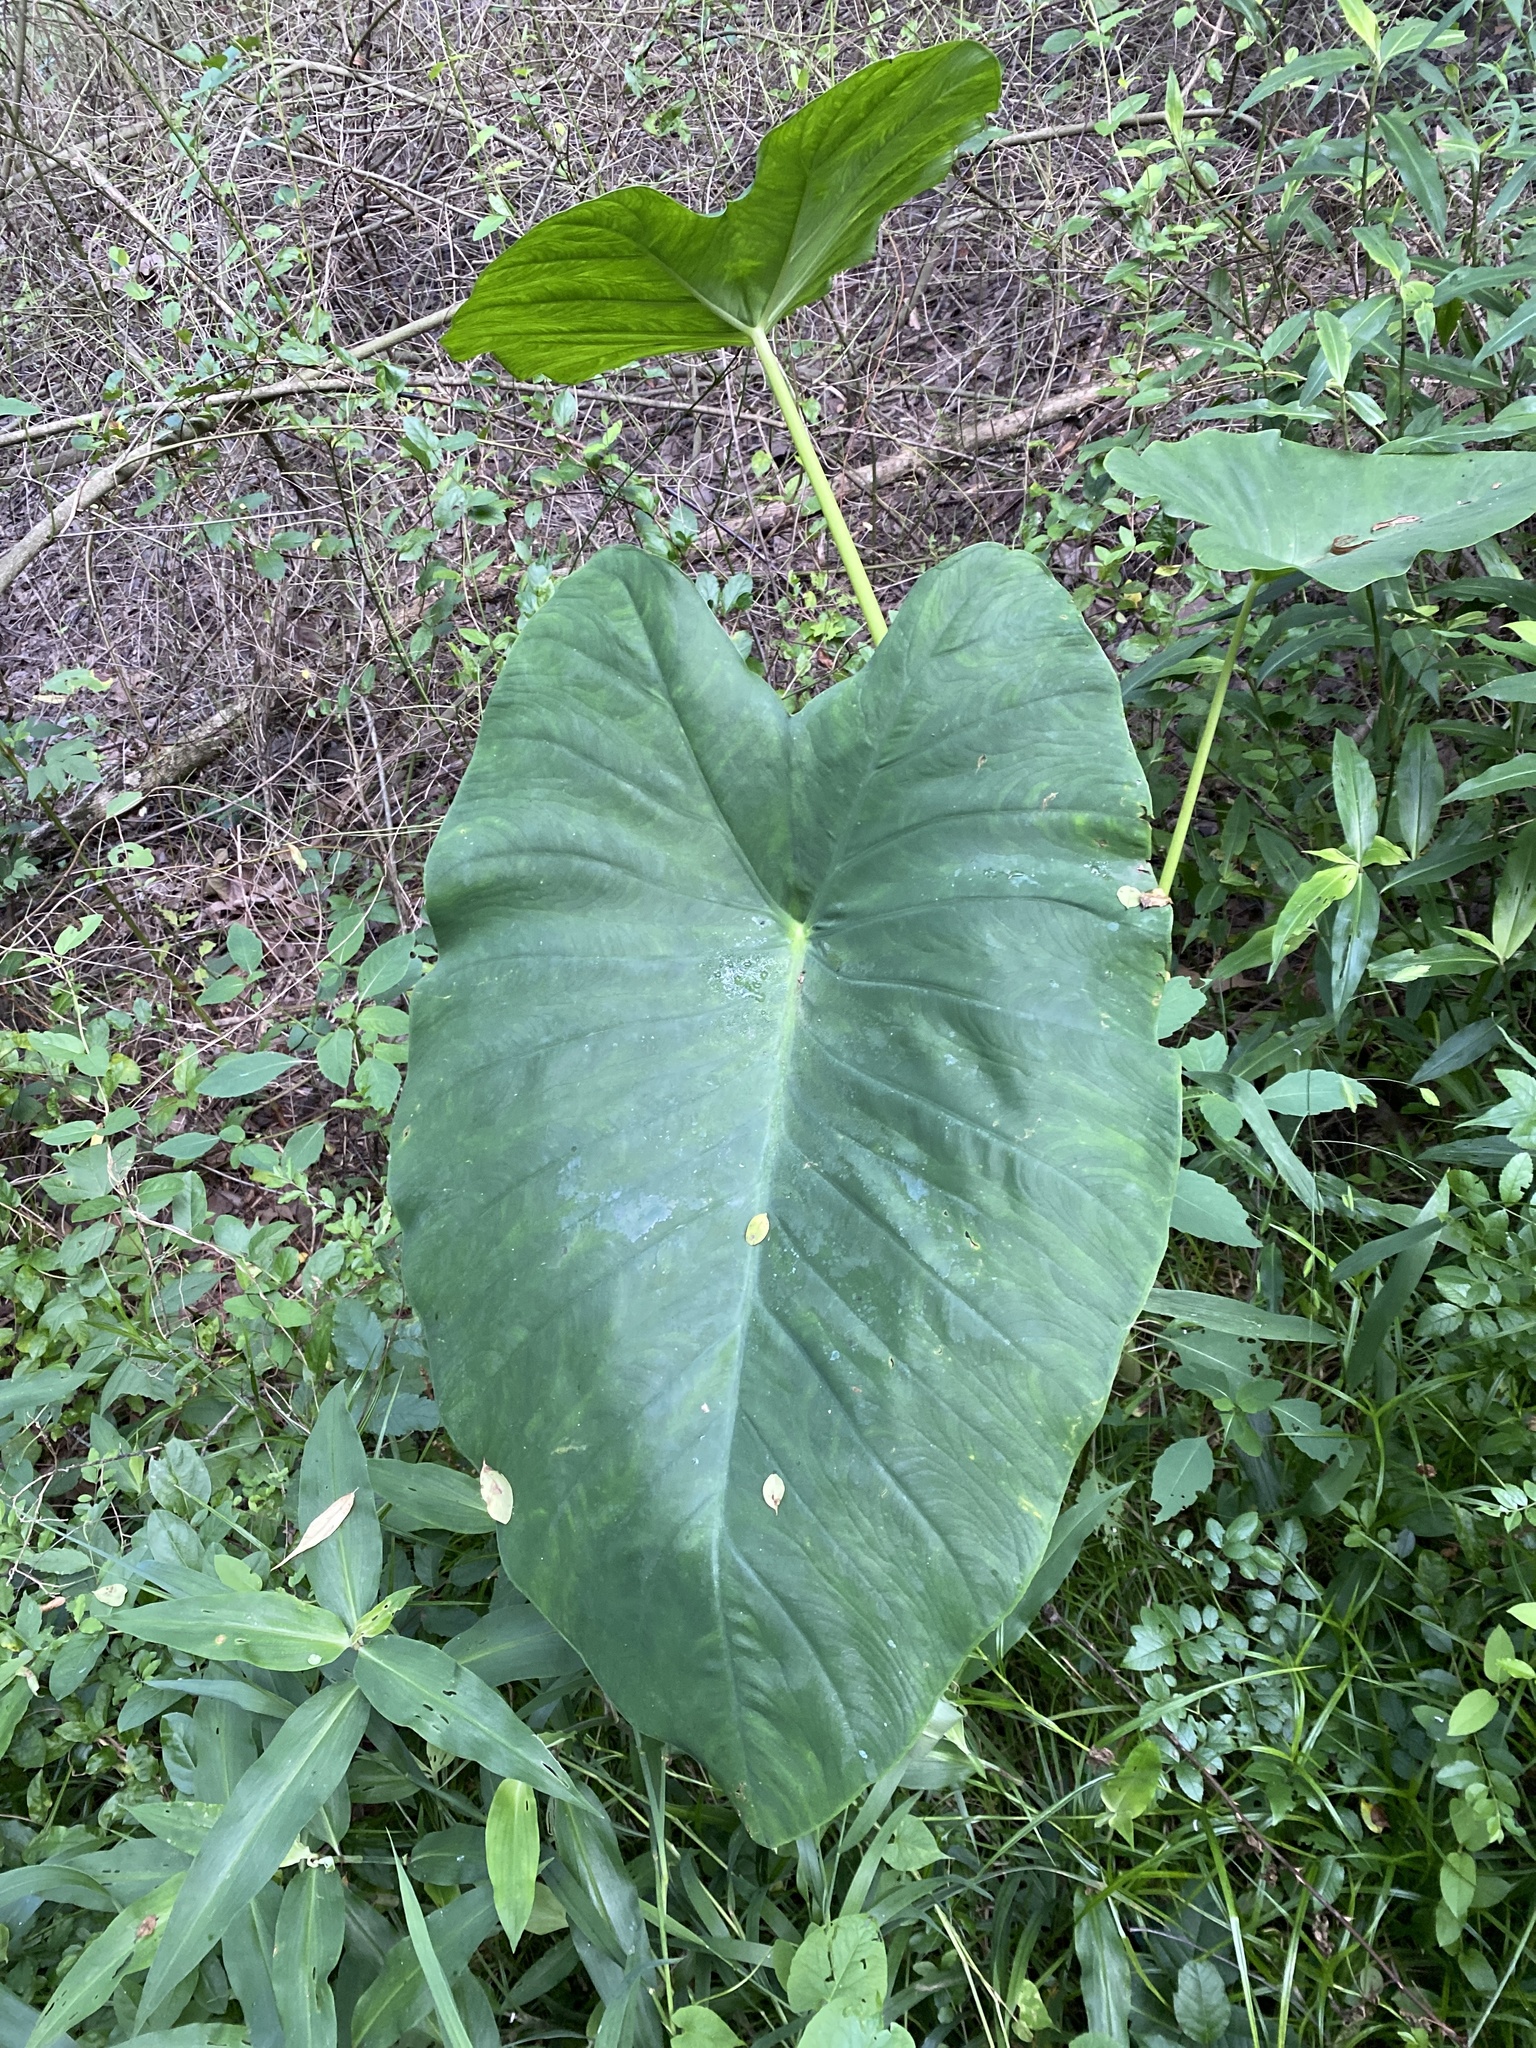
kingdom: Plantae
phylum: Tracheophyta
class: Liliopsida
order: Alismatales
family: Araceae
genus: Colocasia
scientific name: Colocasia esculenta
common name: Taro
